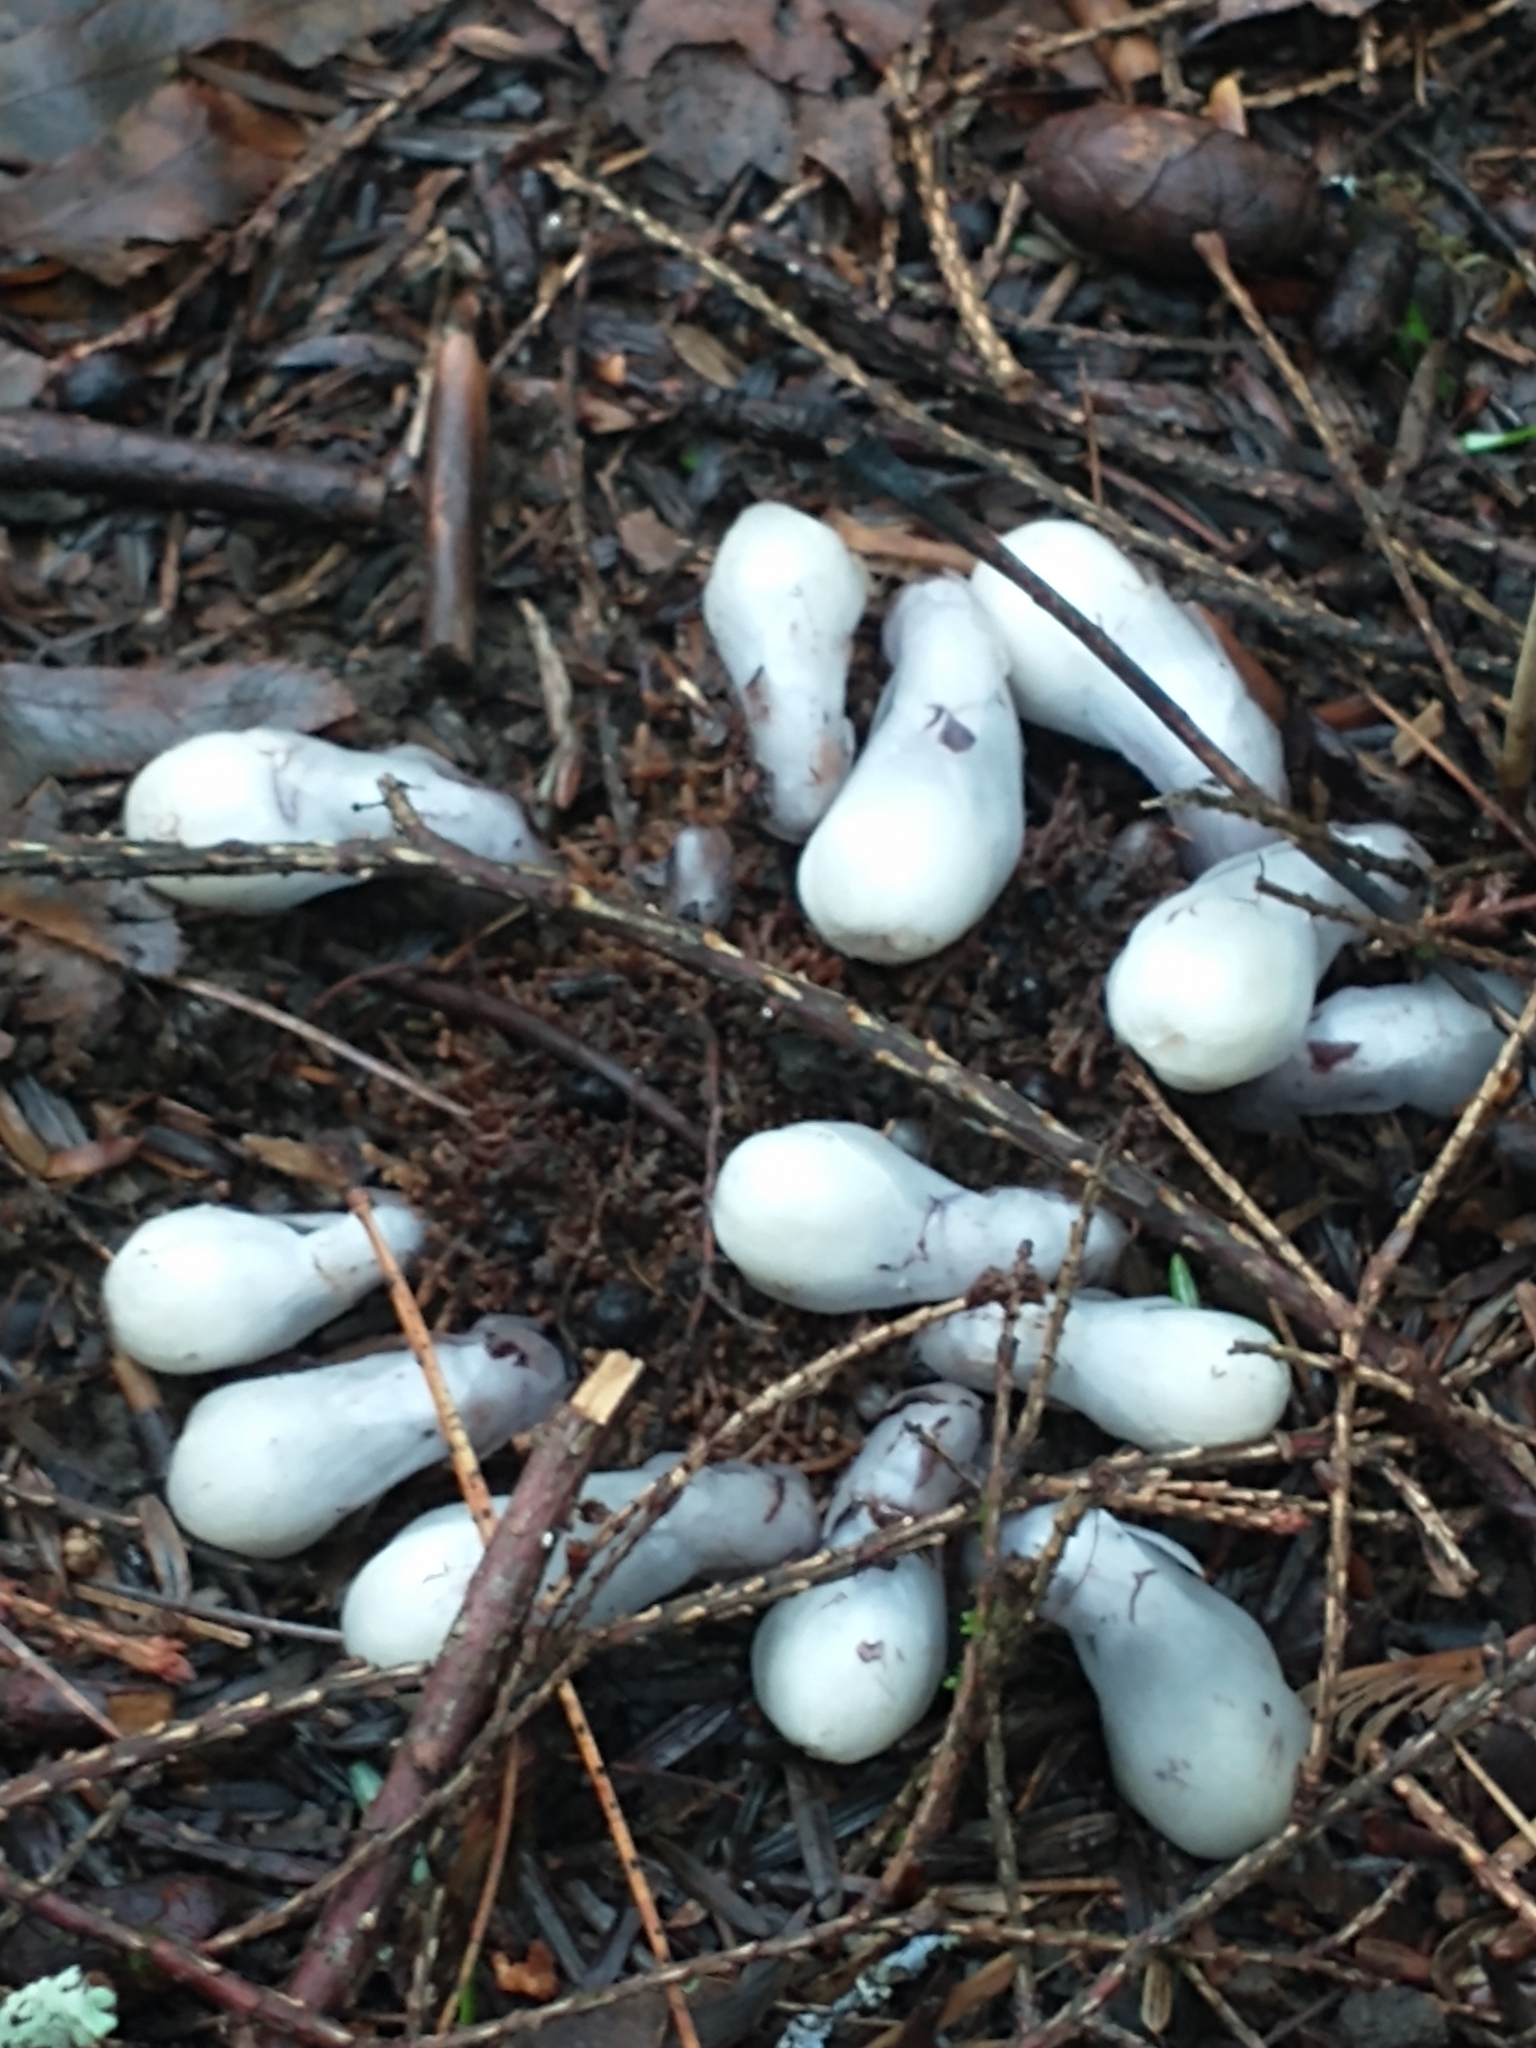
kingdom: Plantae
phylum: Tracheophyta
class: Magnoliopsida
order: Ericales
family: Ericaceae
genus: Monotropa
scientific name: Monotropa uniflora
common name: Convulsion root
